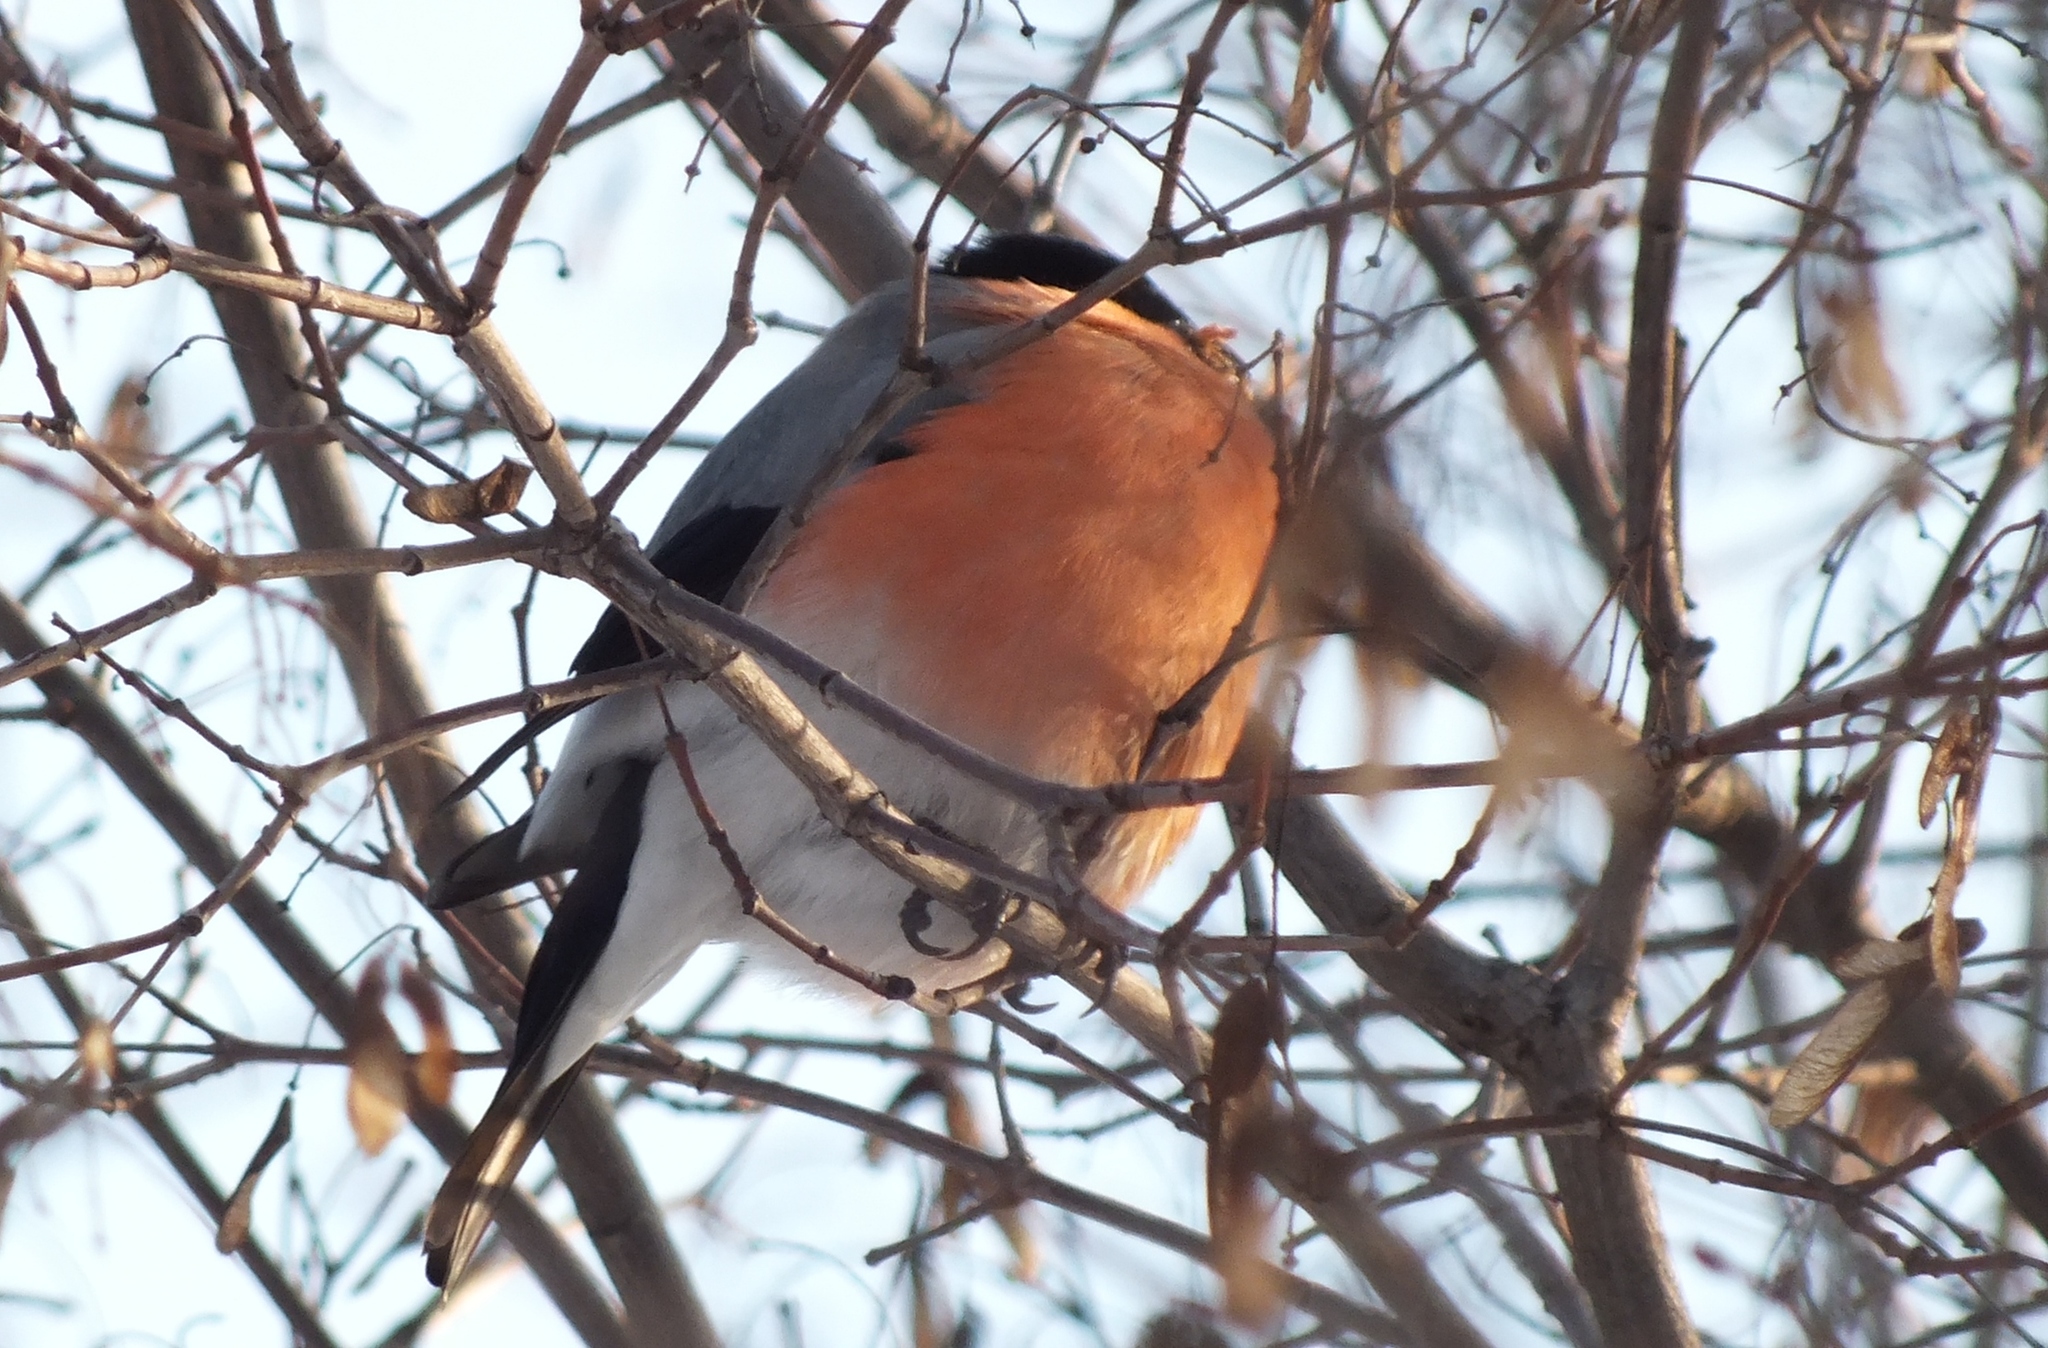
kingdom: Animalia
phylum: Chordata
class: Aves
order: Passeriformes
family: Fringillidae
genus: Pyrrhula
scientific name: Pyrrhula pyrrhula
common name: Eurasian bullfinch
